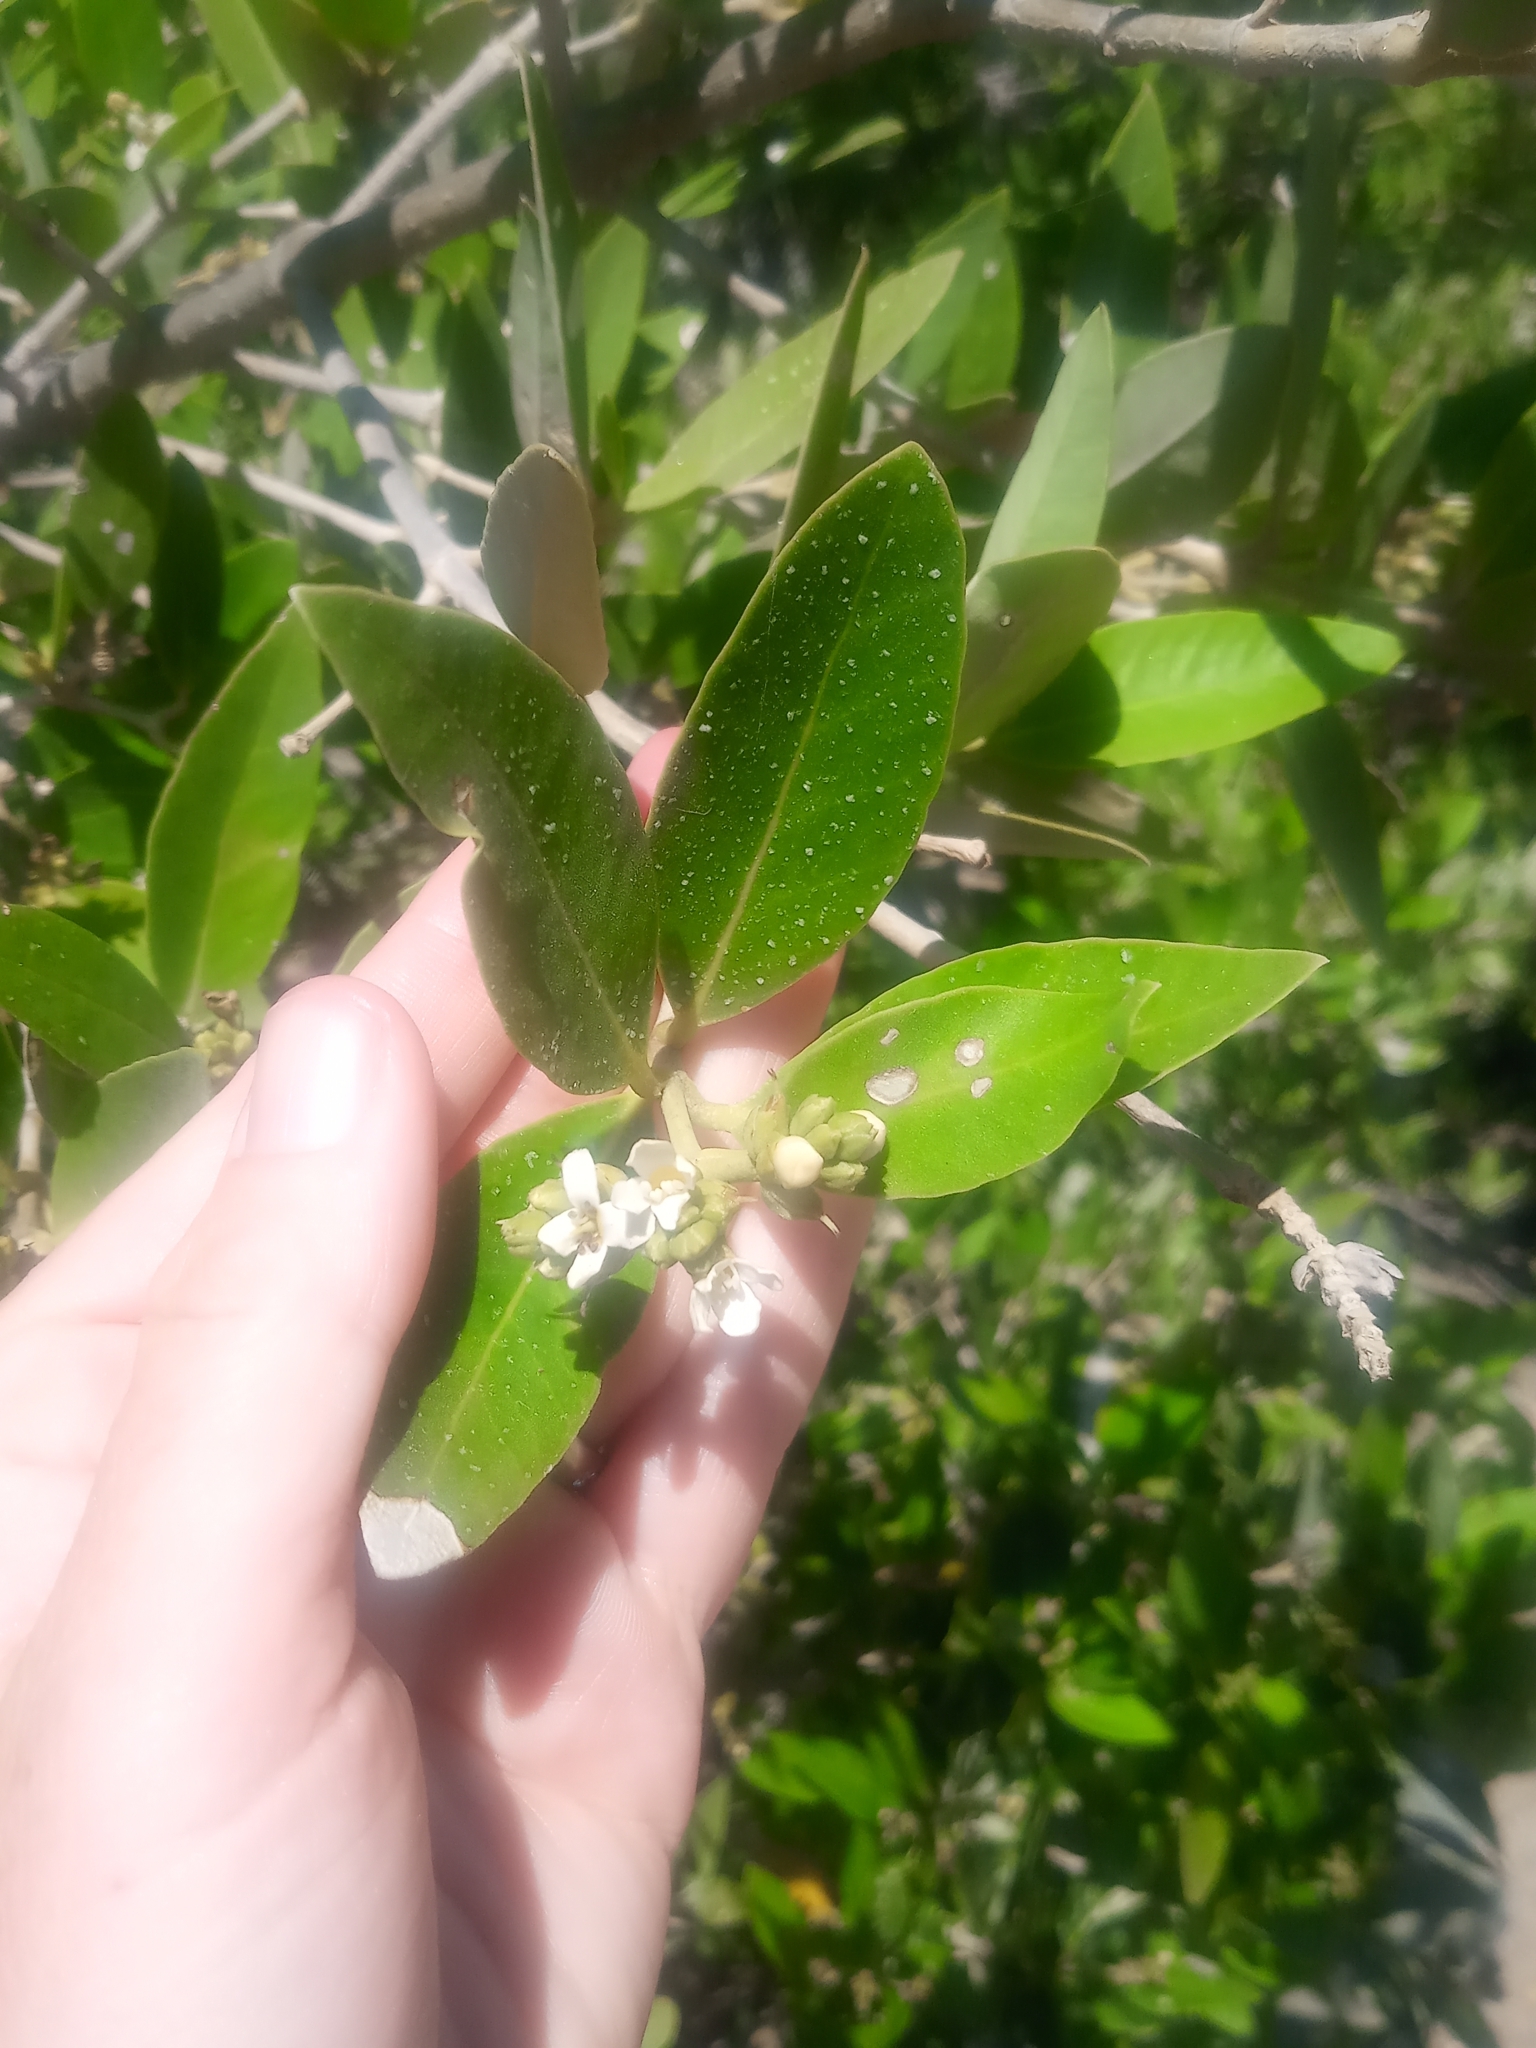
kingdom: Plantae
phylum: Tracheophyta
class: Magnoliopsida
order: Lamiales
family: Acanthaceae
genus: Avicennia
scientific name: Avicennia germinans
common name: Black mangrove
